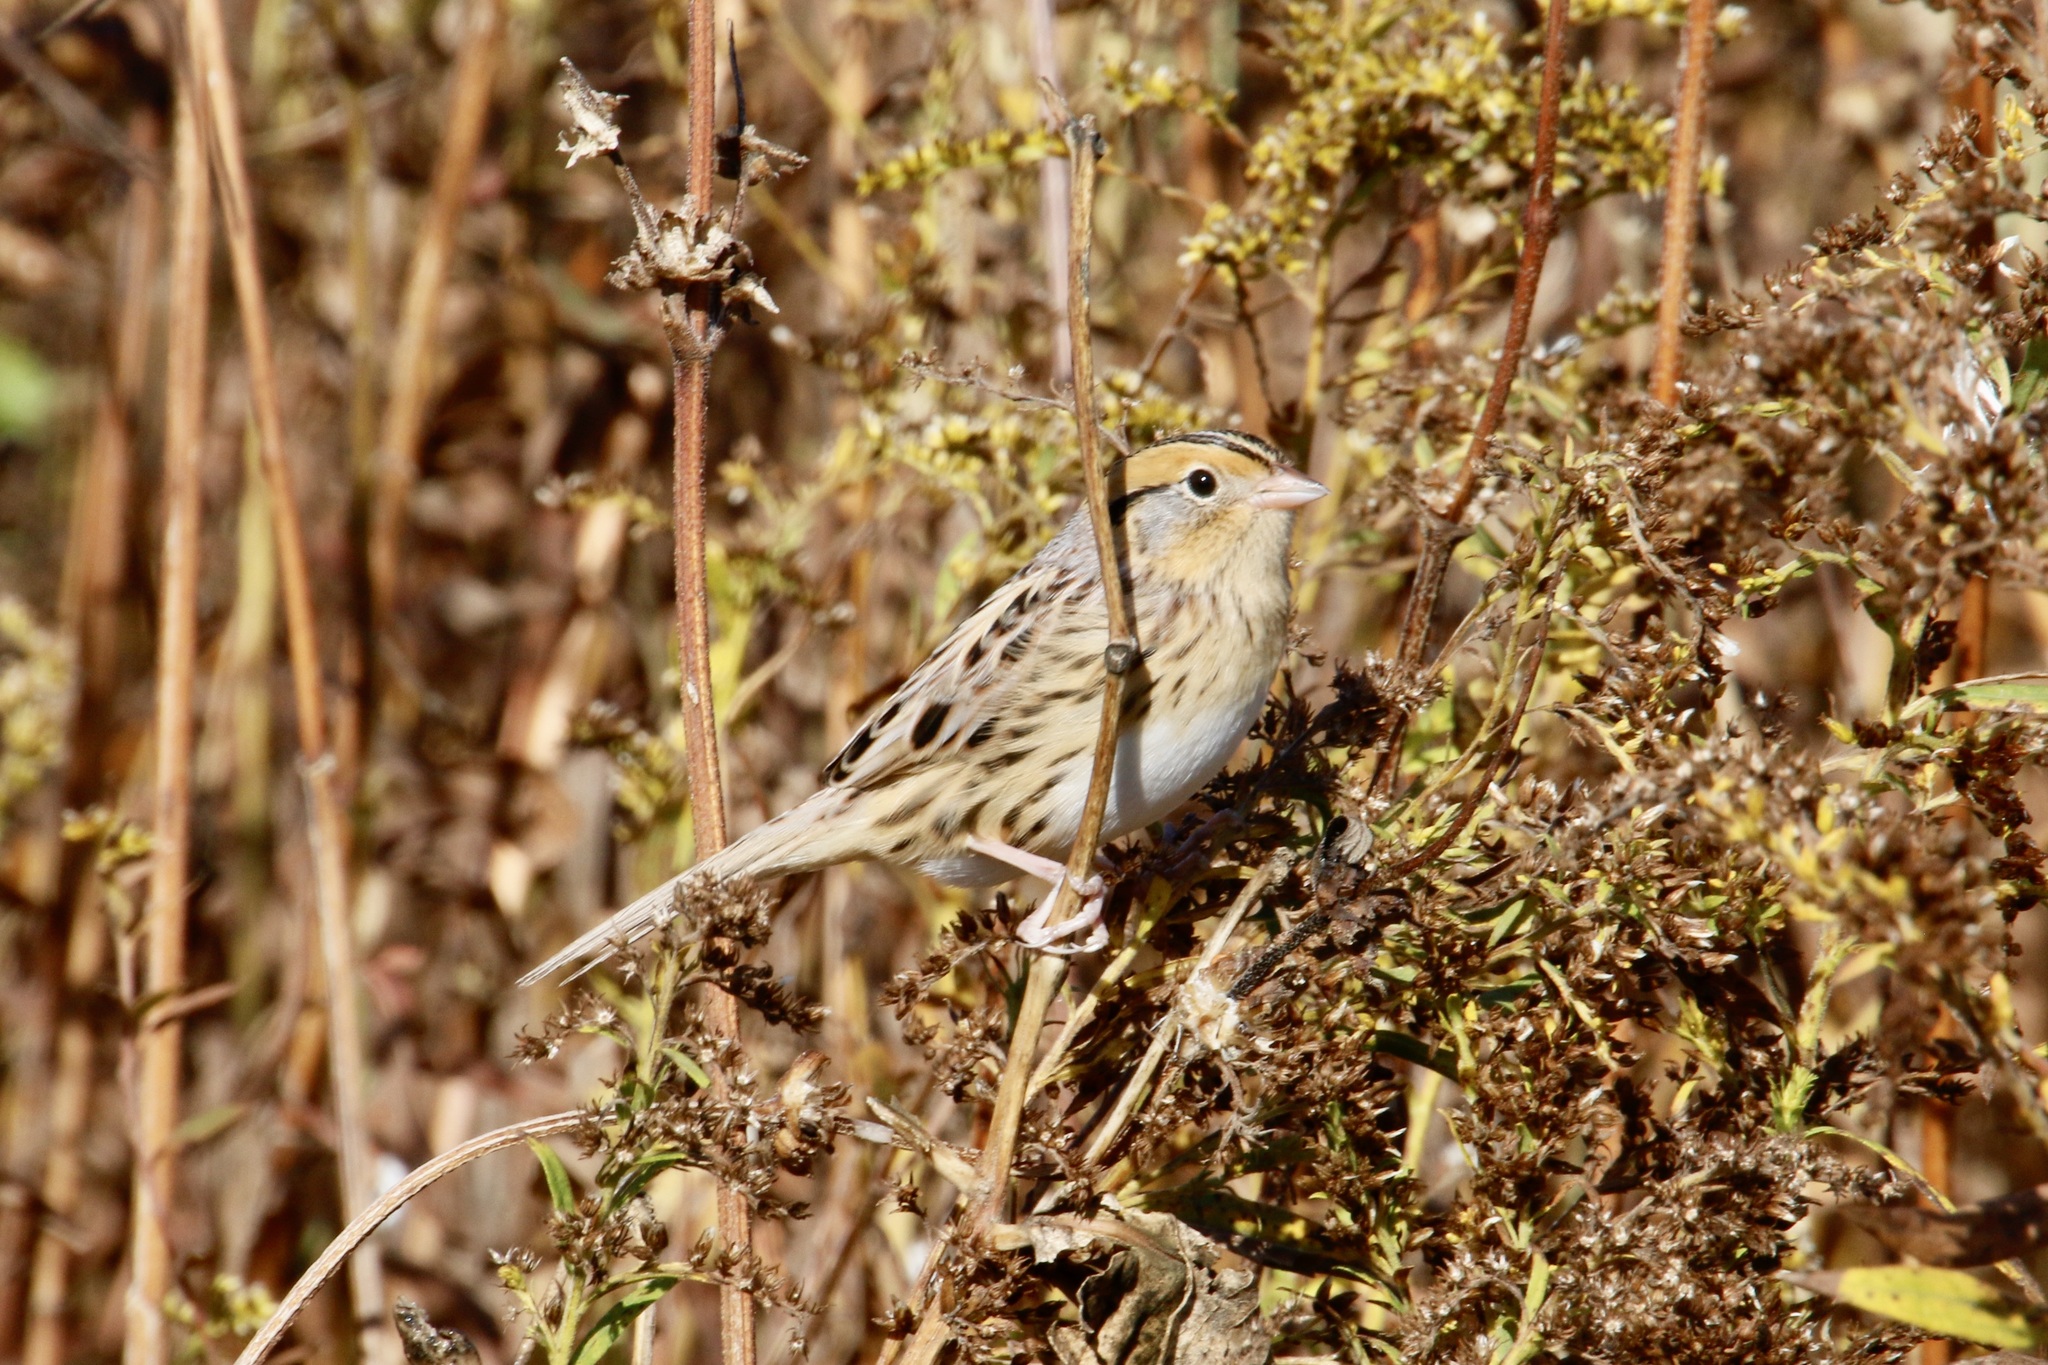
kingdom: Animalia
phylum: Chordata
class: Aves
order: Passeriformes
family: Passerellidae
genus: Ammospiza
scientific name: Ammospiza leconteii
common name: Le conte's sparrow
